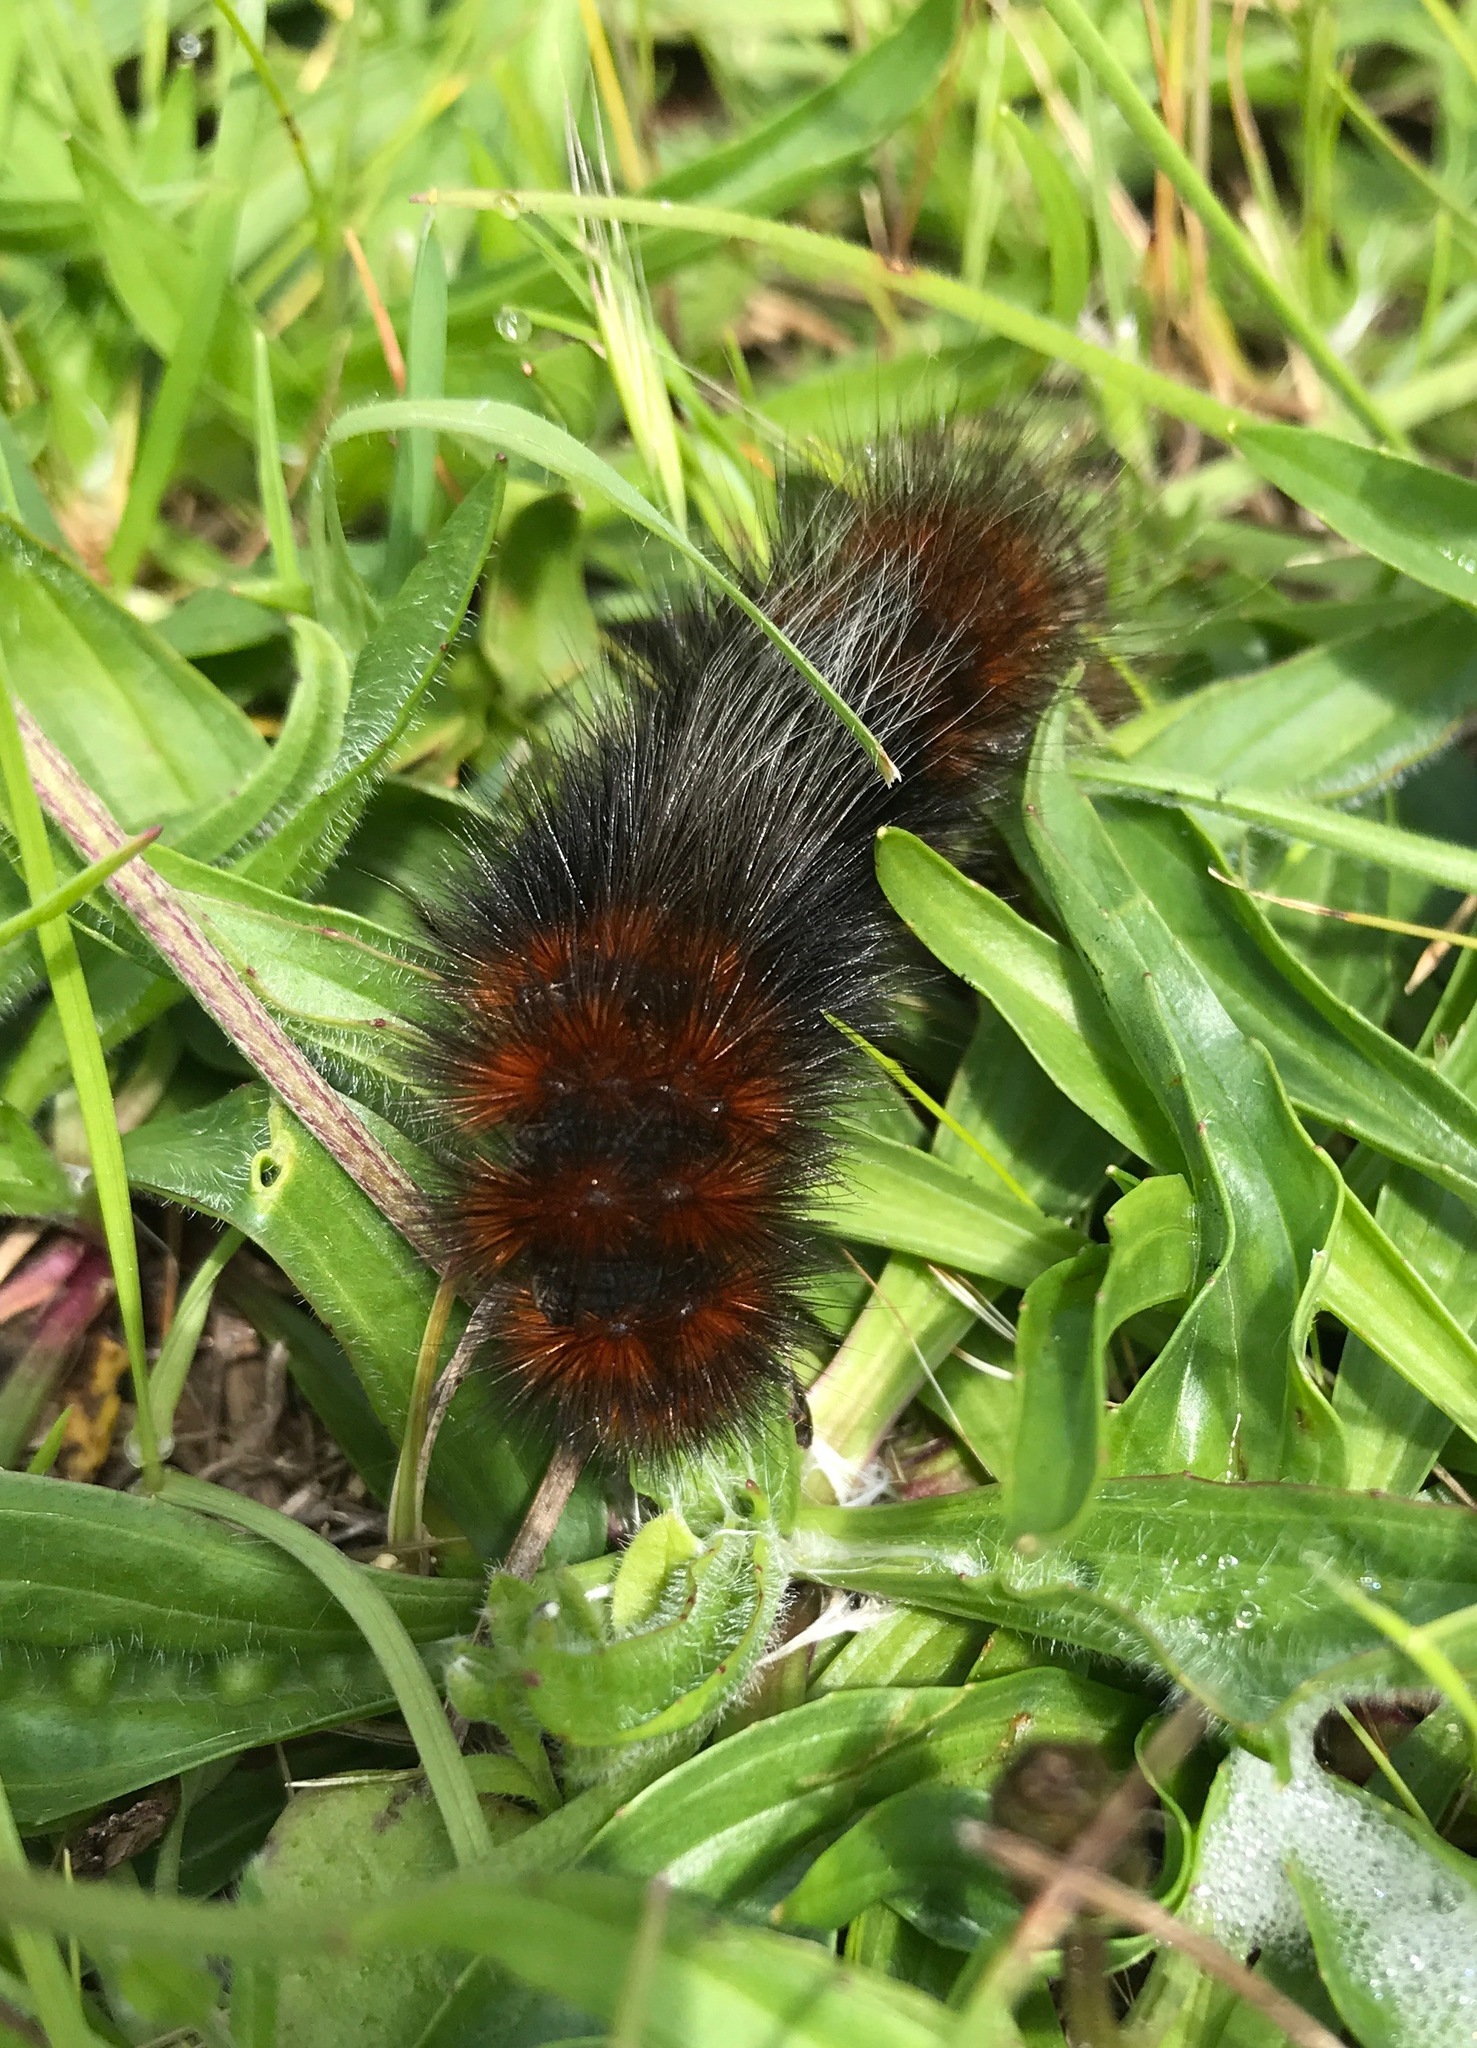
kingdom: Animalia
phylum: Arthropoda
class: Insecta
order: Lepidoptera
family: Erebidae
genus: Arctia
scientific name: Arctia tigrina
